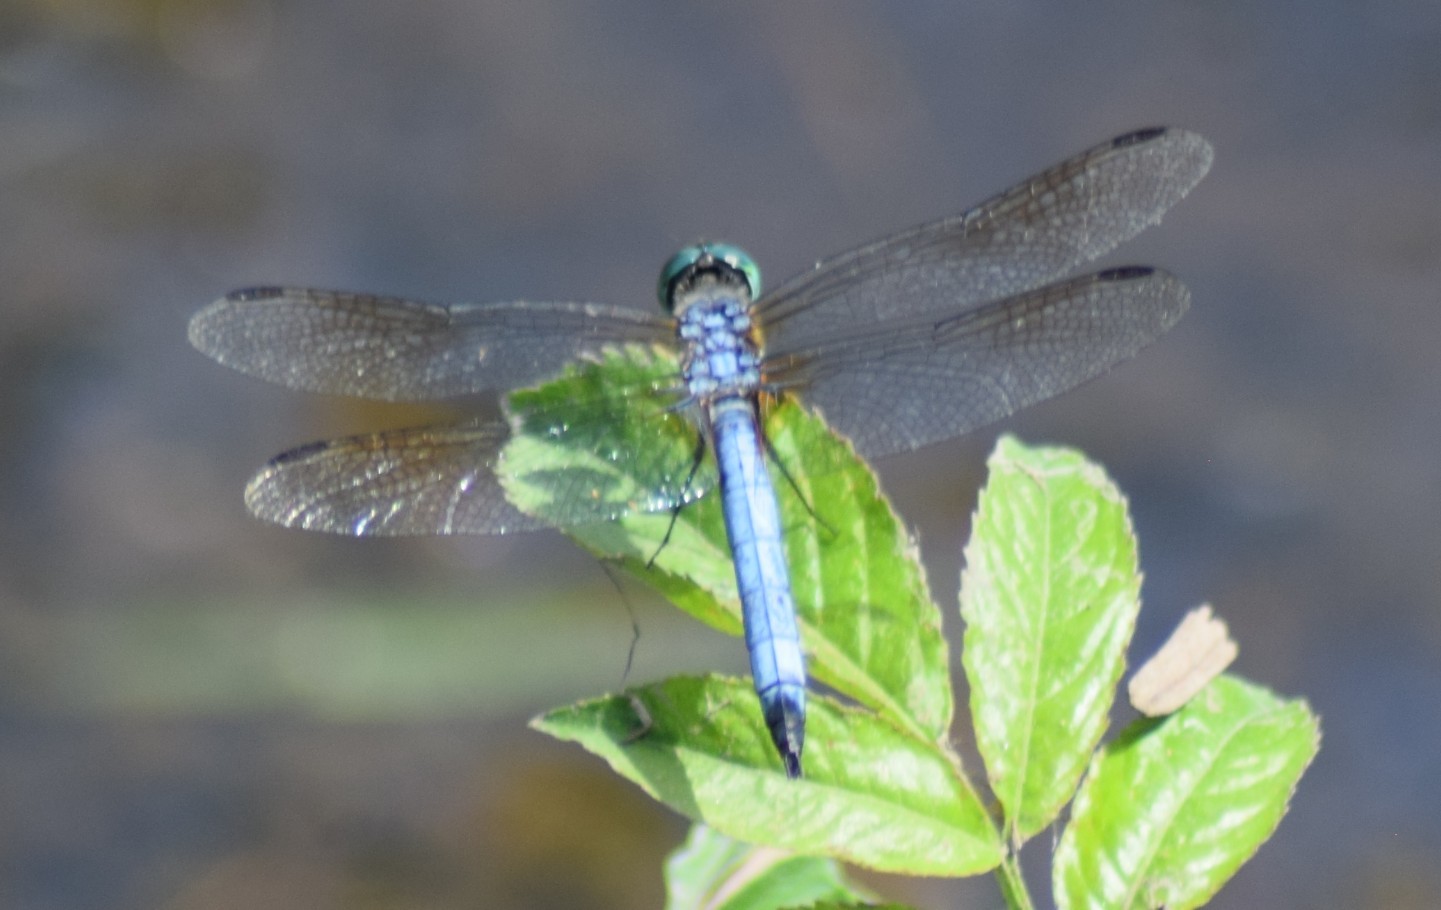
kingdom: Animalia
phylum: Arthropoda
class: Insecta
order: Odonata
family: Libellulidae
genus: Pachydiplax
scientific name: Pachydiplax longipennis
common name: Blue dasher
